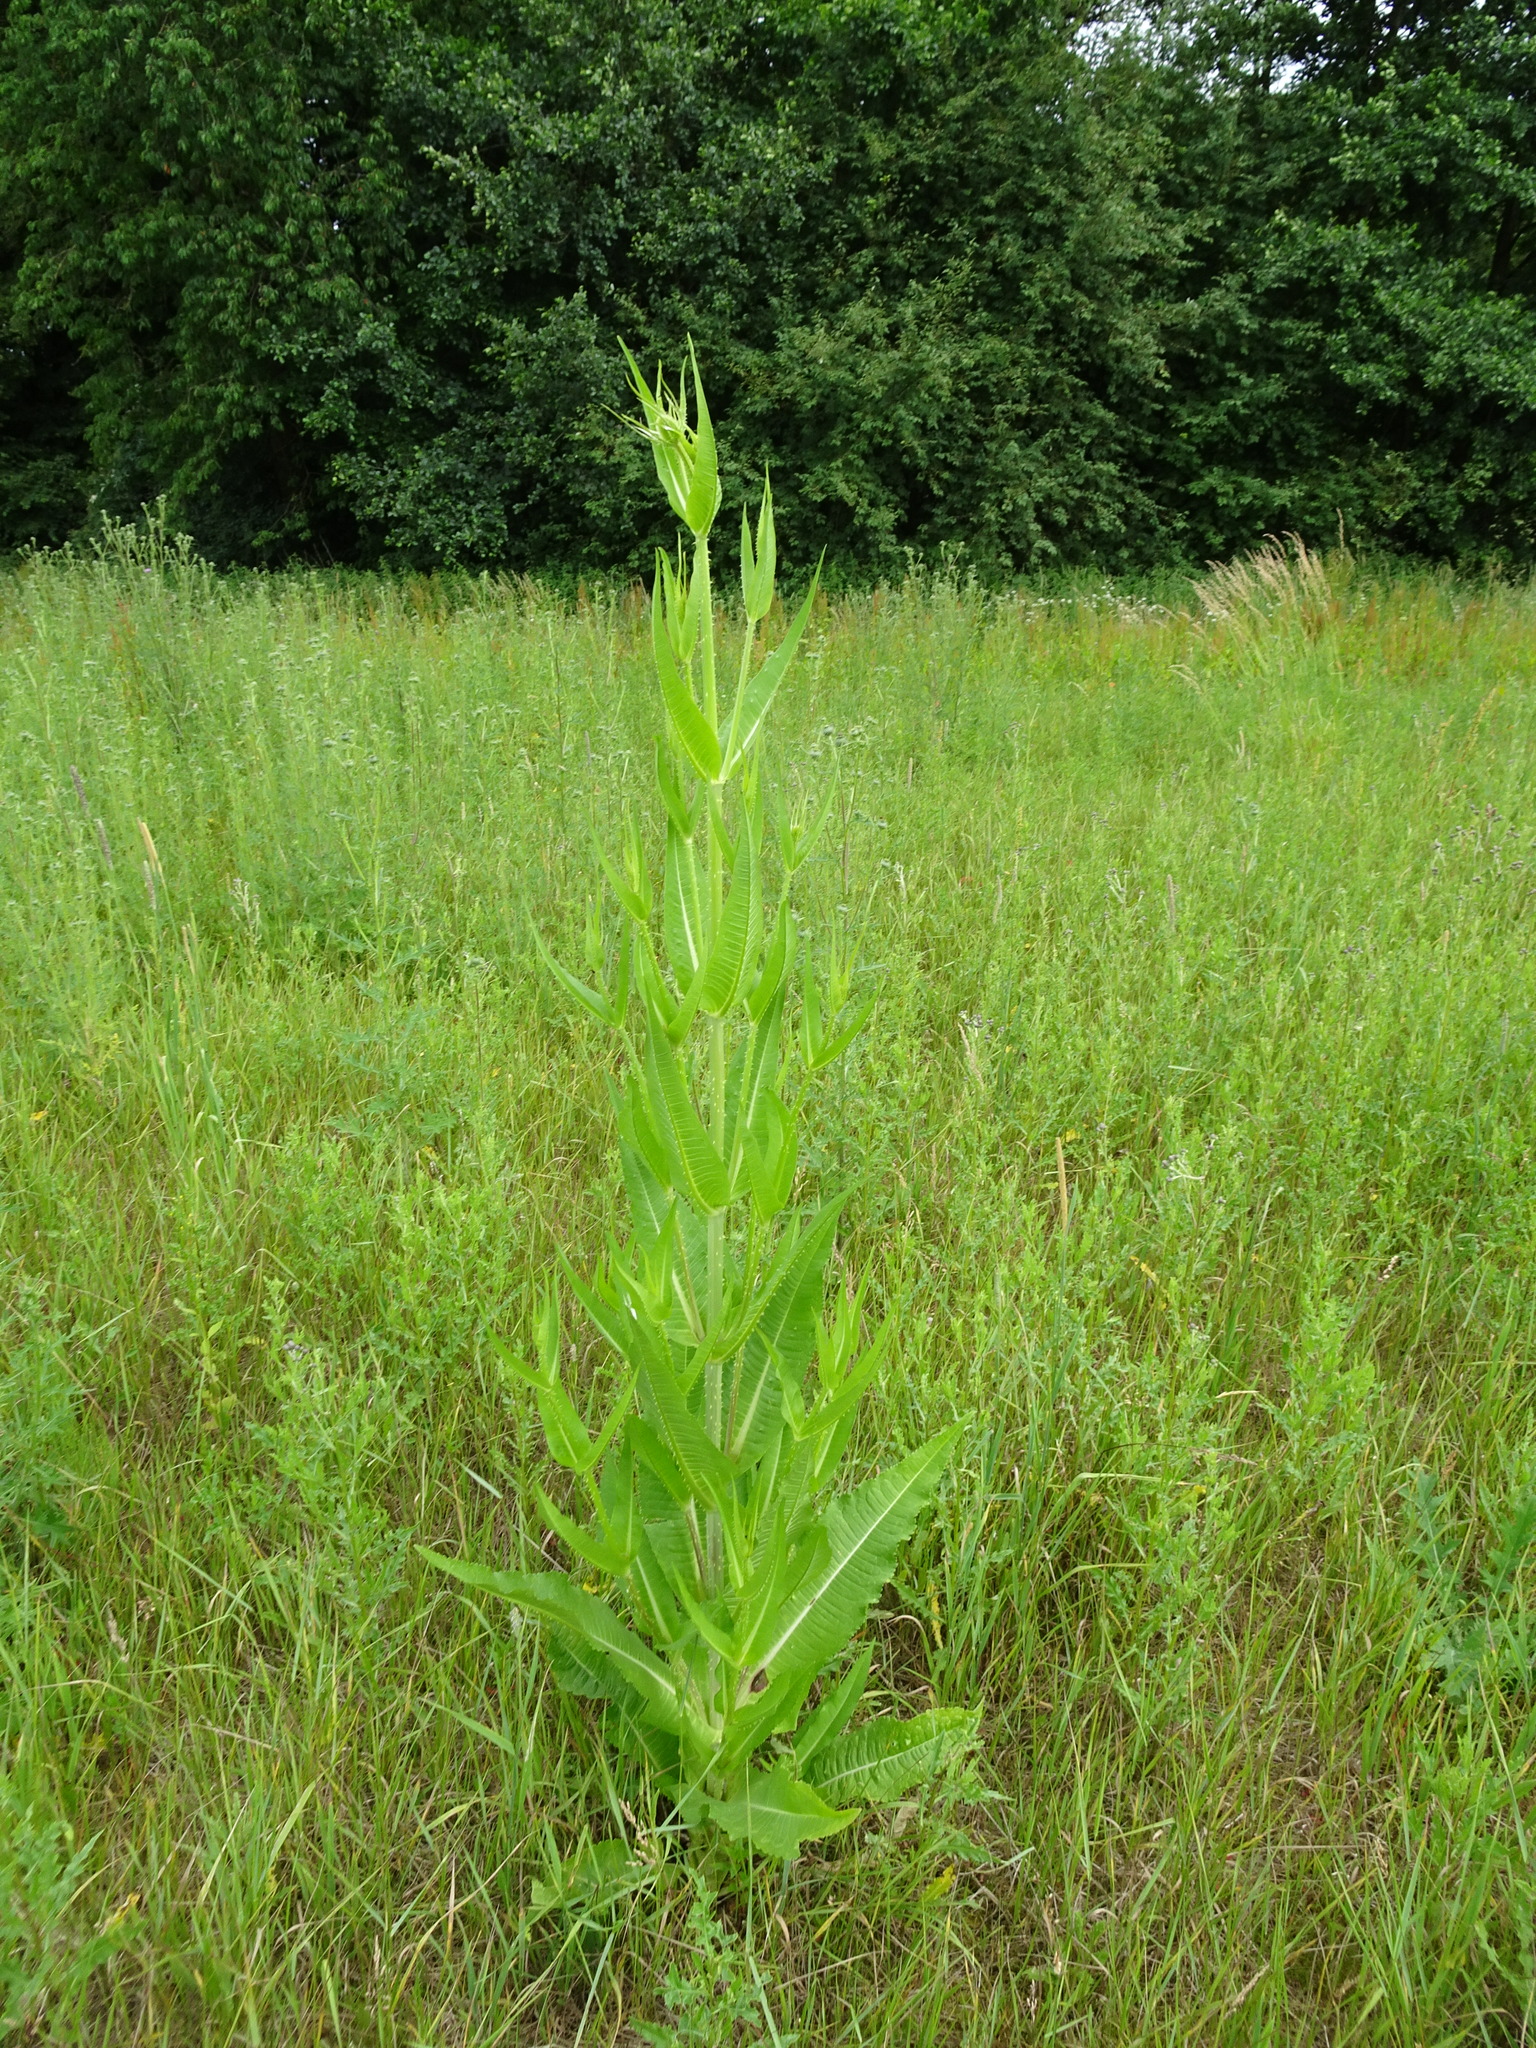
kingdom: Plantae
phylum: Tracheophyta
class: Magnoliopsida
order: Dipsacales
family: Caprifoliaceae
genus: Dipsacus
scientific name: Dipsacus fullonum
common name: Teasel
